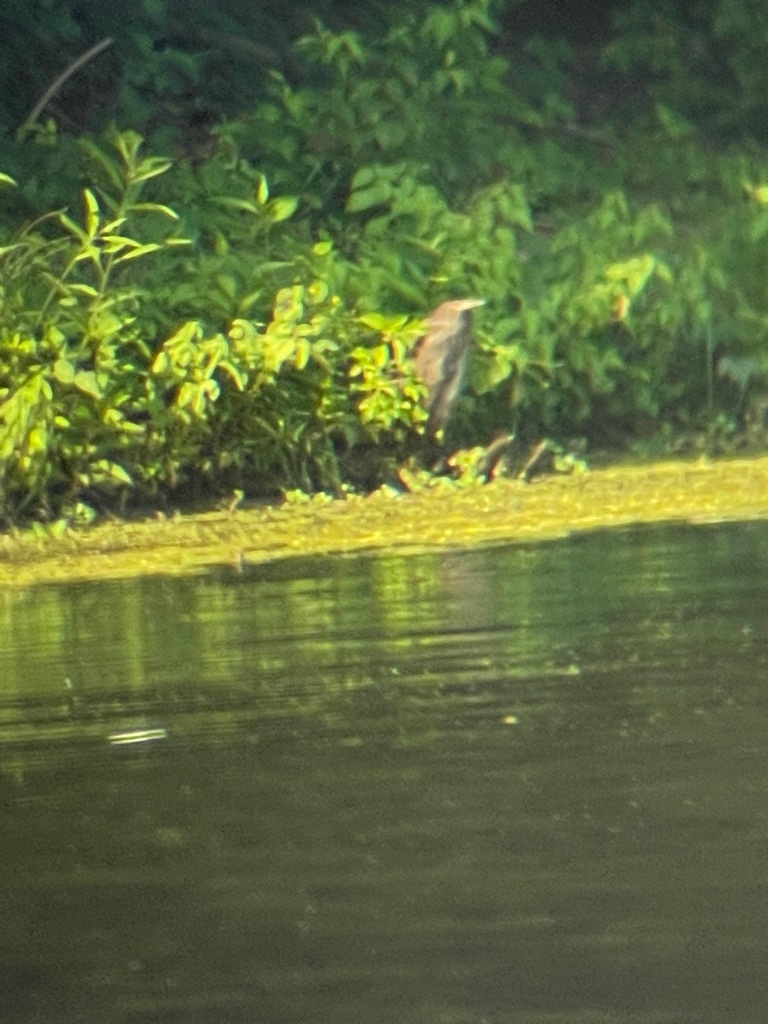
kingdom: Animalia
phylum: Chordata
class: Aves
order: Pelecaniformes
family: Ardeidae
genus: Butorides
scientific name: Butorides virescens
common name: Green heron
